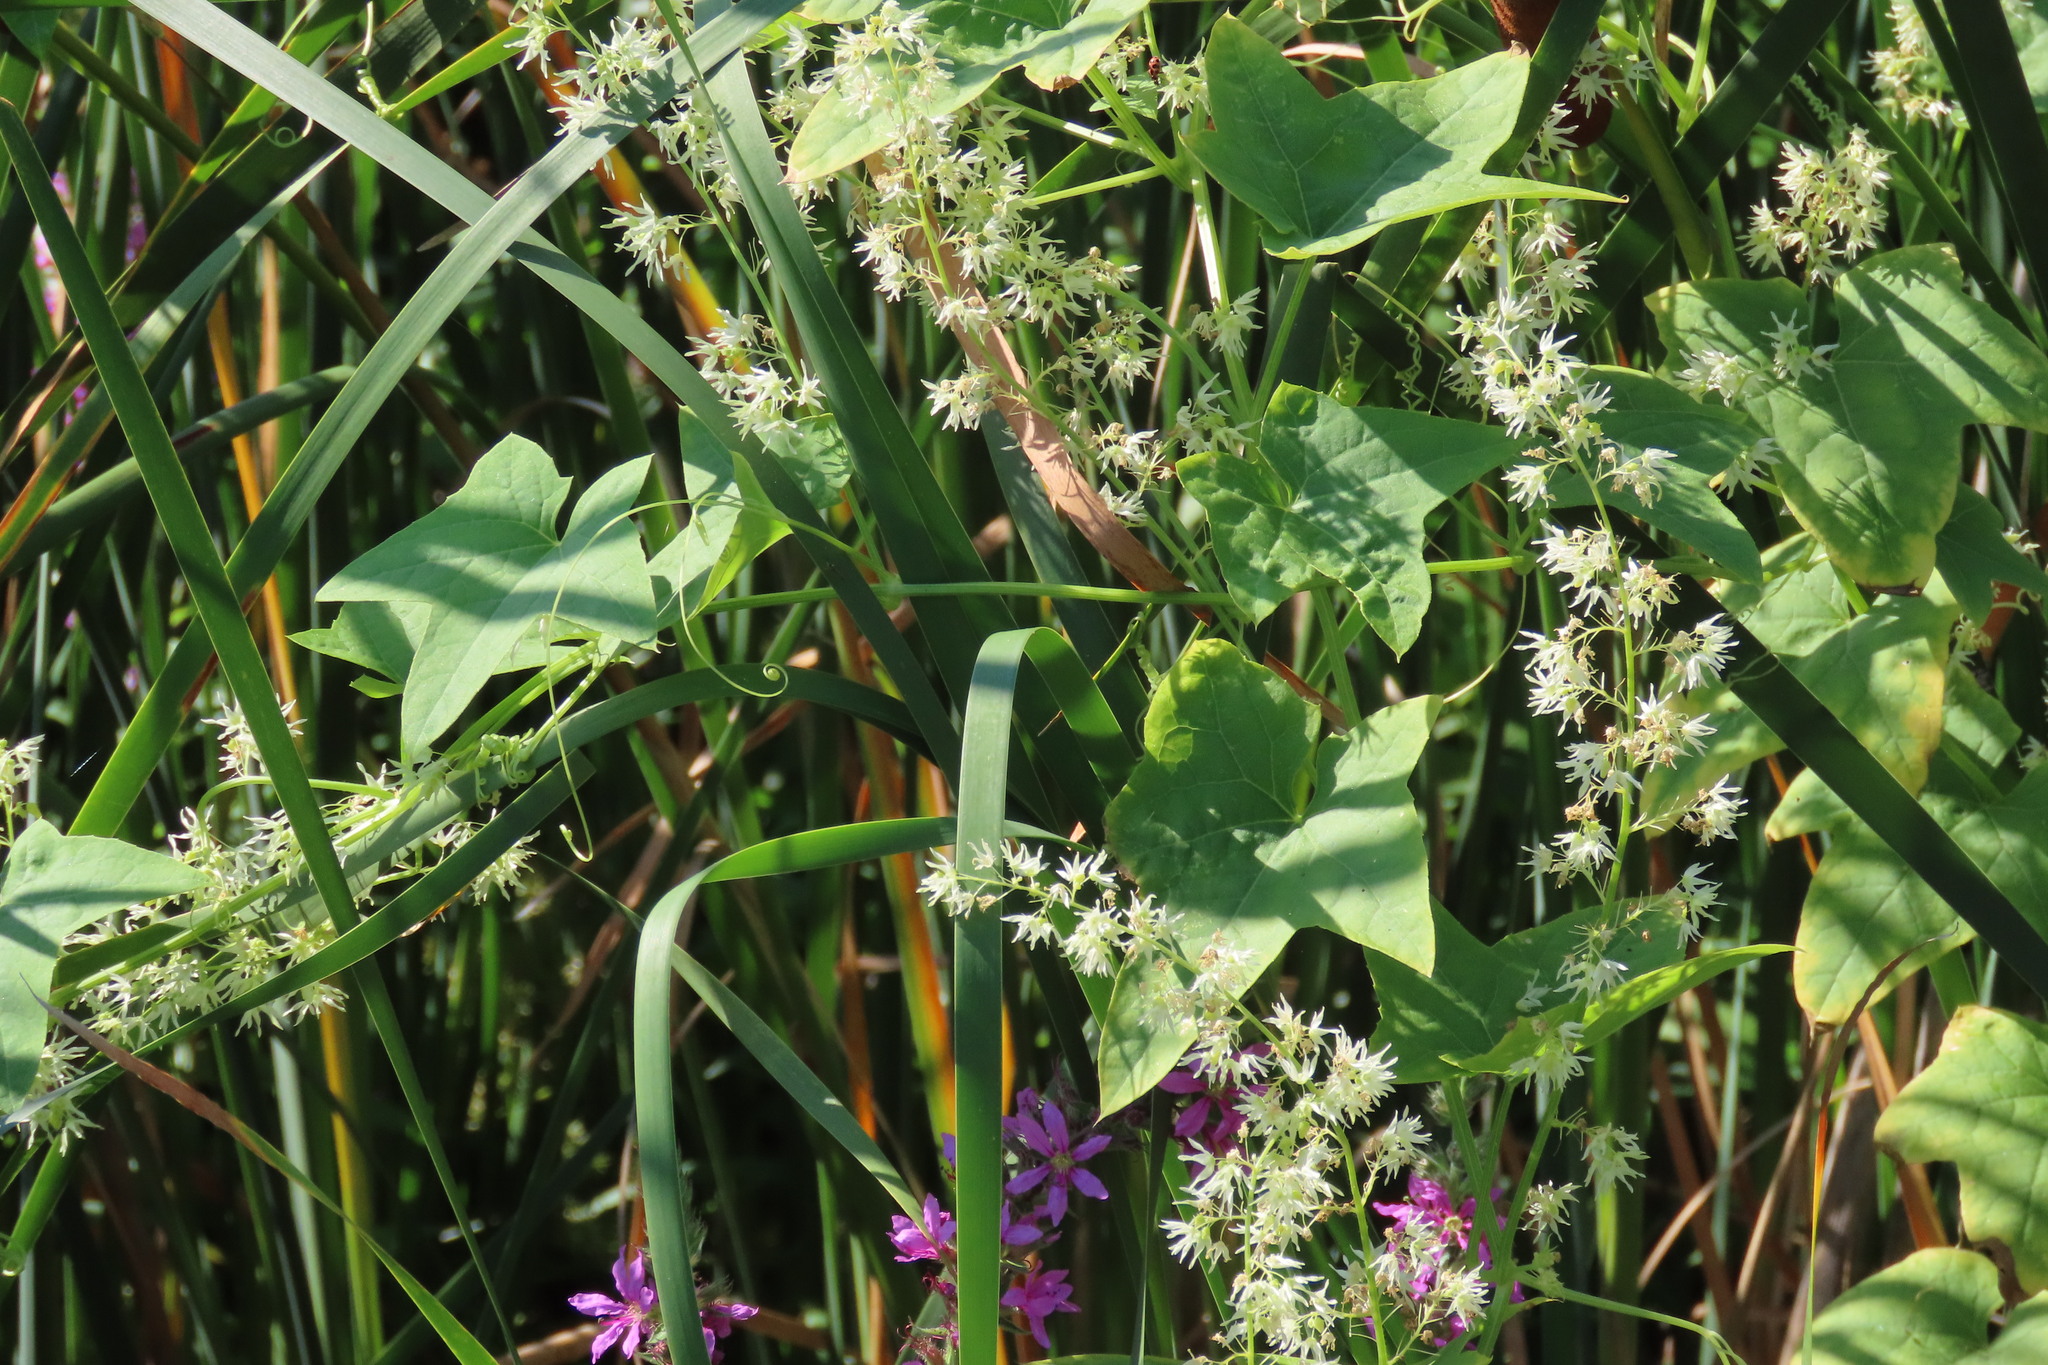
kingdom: Plantae
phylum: Tracheophyta
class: Magnoliopsida
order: Cucurbitales
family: Cucurbitaceae
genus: Echinocystis
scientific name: Echinocystis lobata
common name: Wild cucumber
